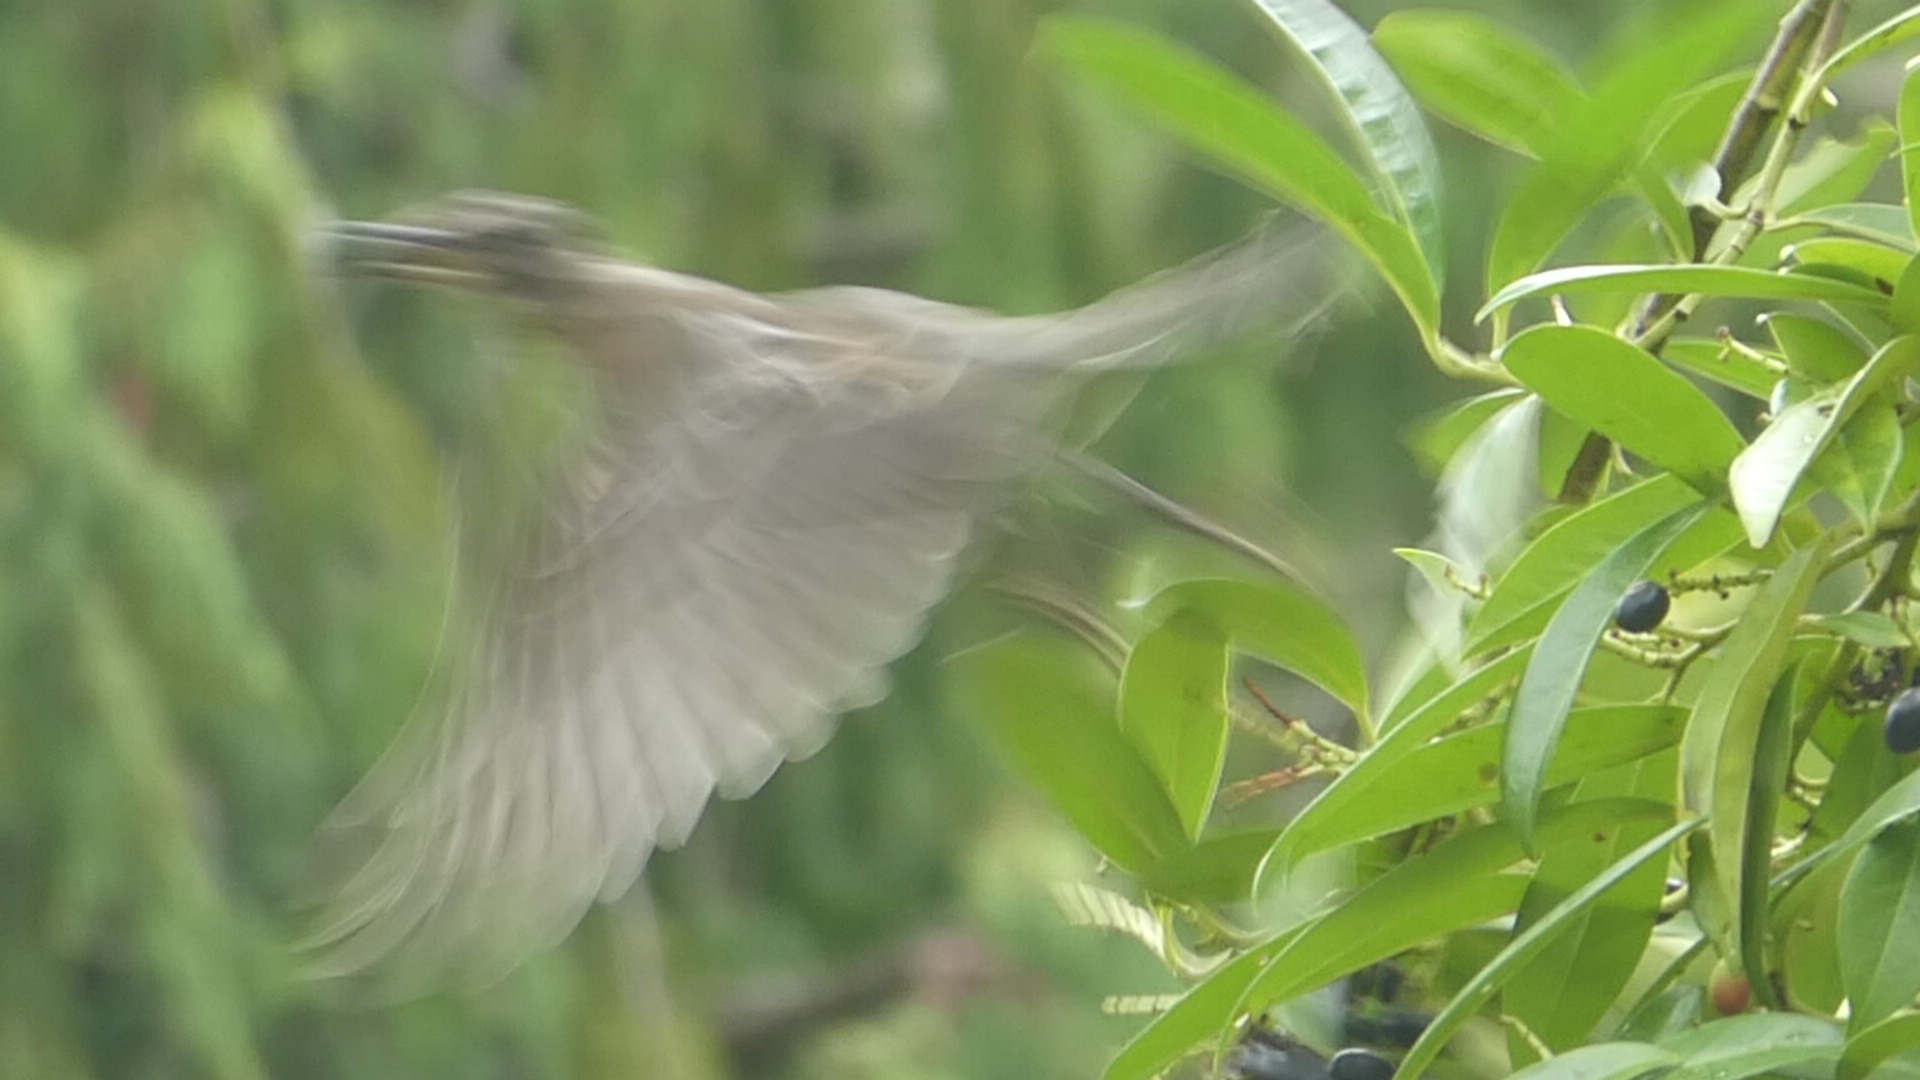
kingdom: Animalia
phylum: Chordata
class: Aves
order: Passeriformes
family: Turdidae
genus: Turdus
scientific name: Turdus migratorius
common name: American robin
